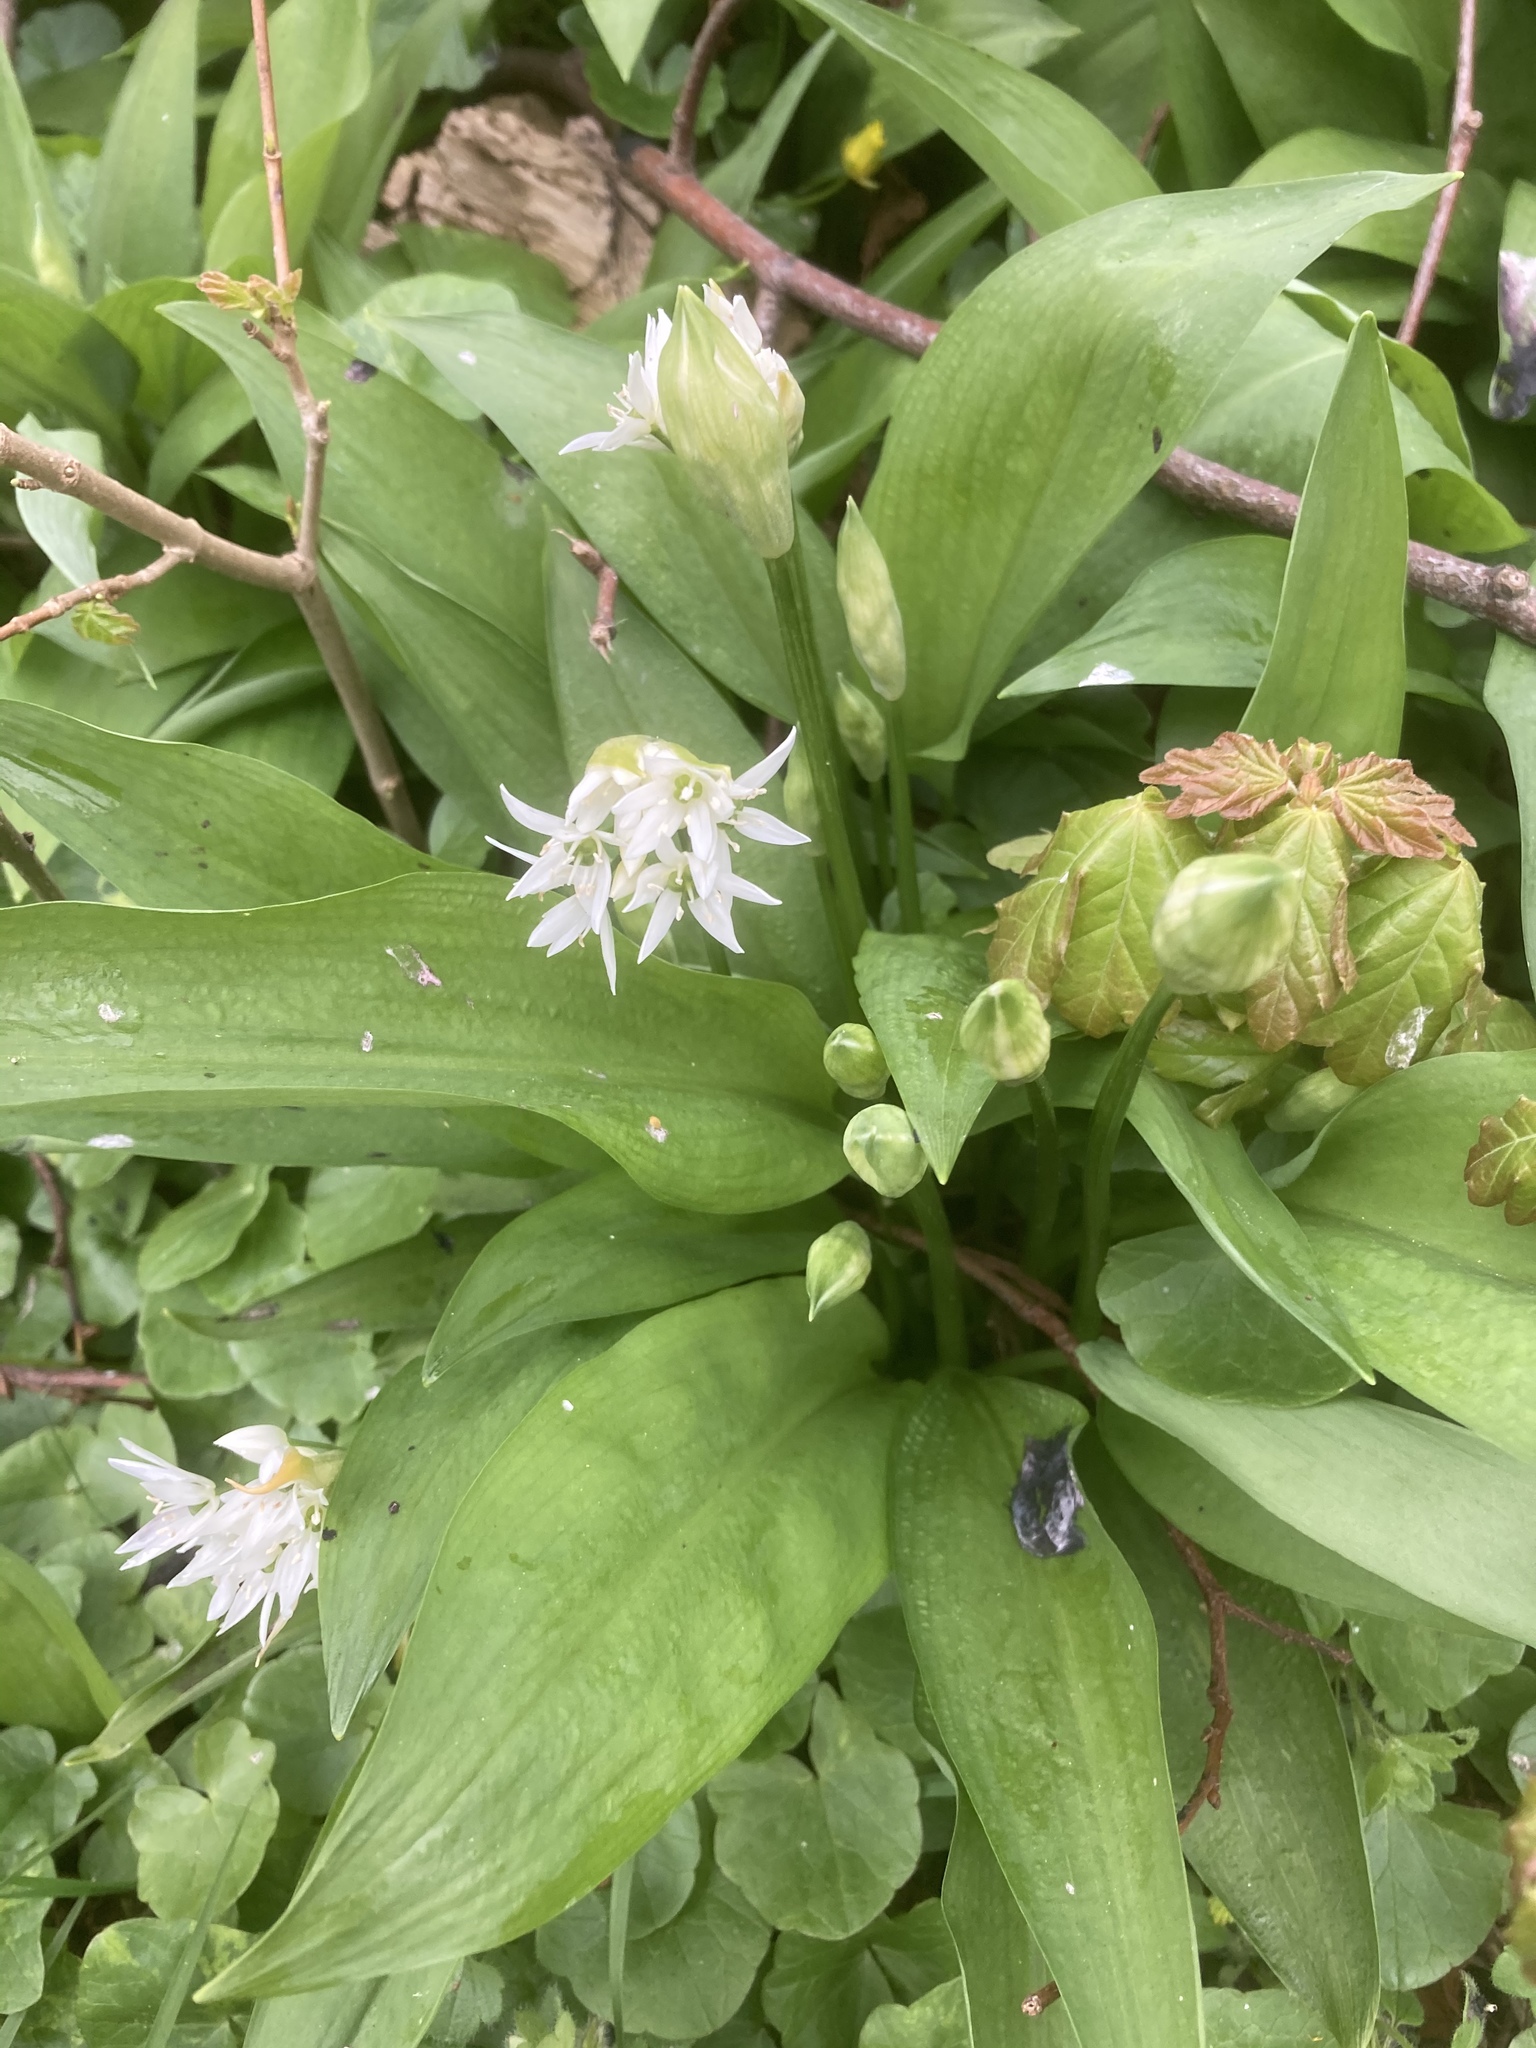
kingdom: Plantae
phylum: Tracheophyta
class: Liliopsida
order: Asparagales
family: Amaryllidaceae
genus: Allium
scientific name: Allium ursinum
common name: Ramsons
